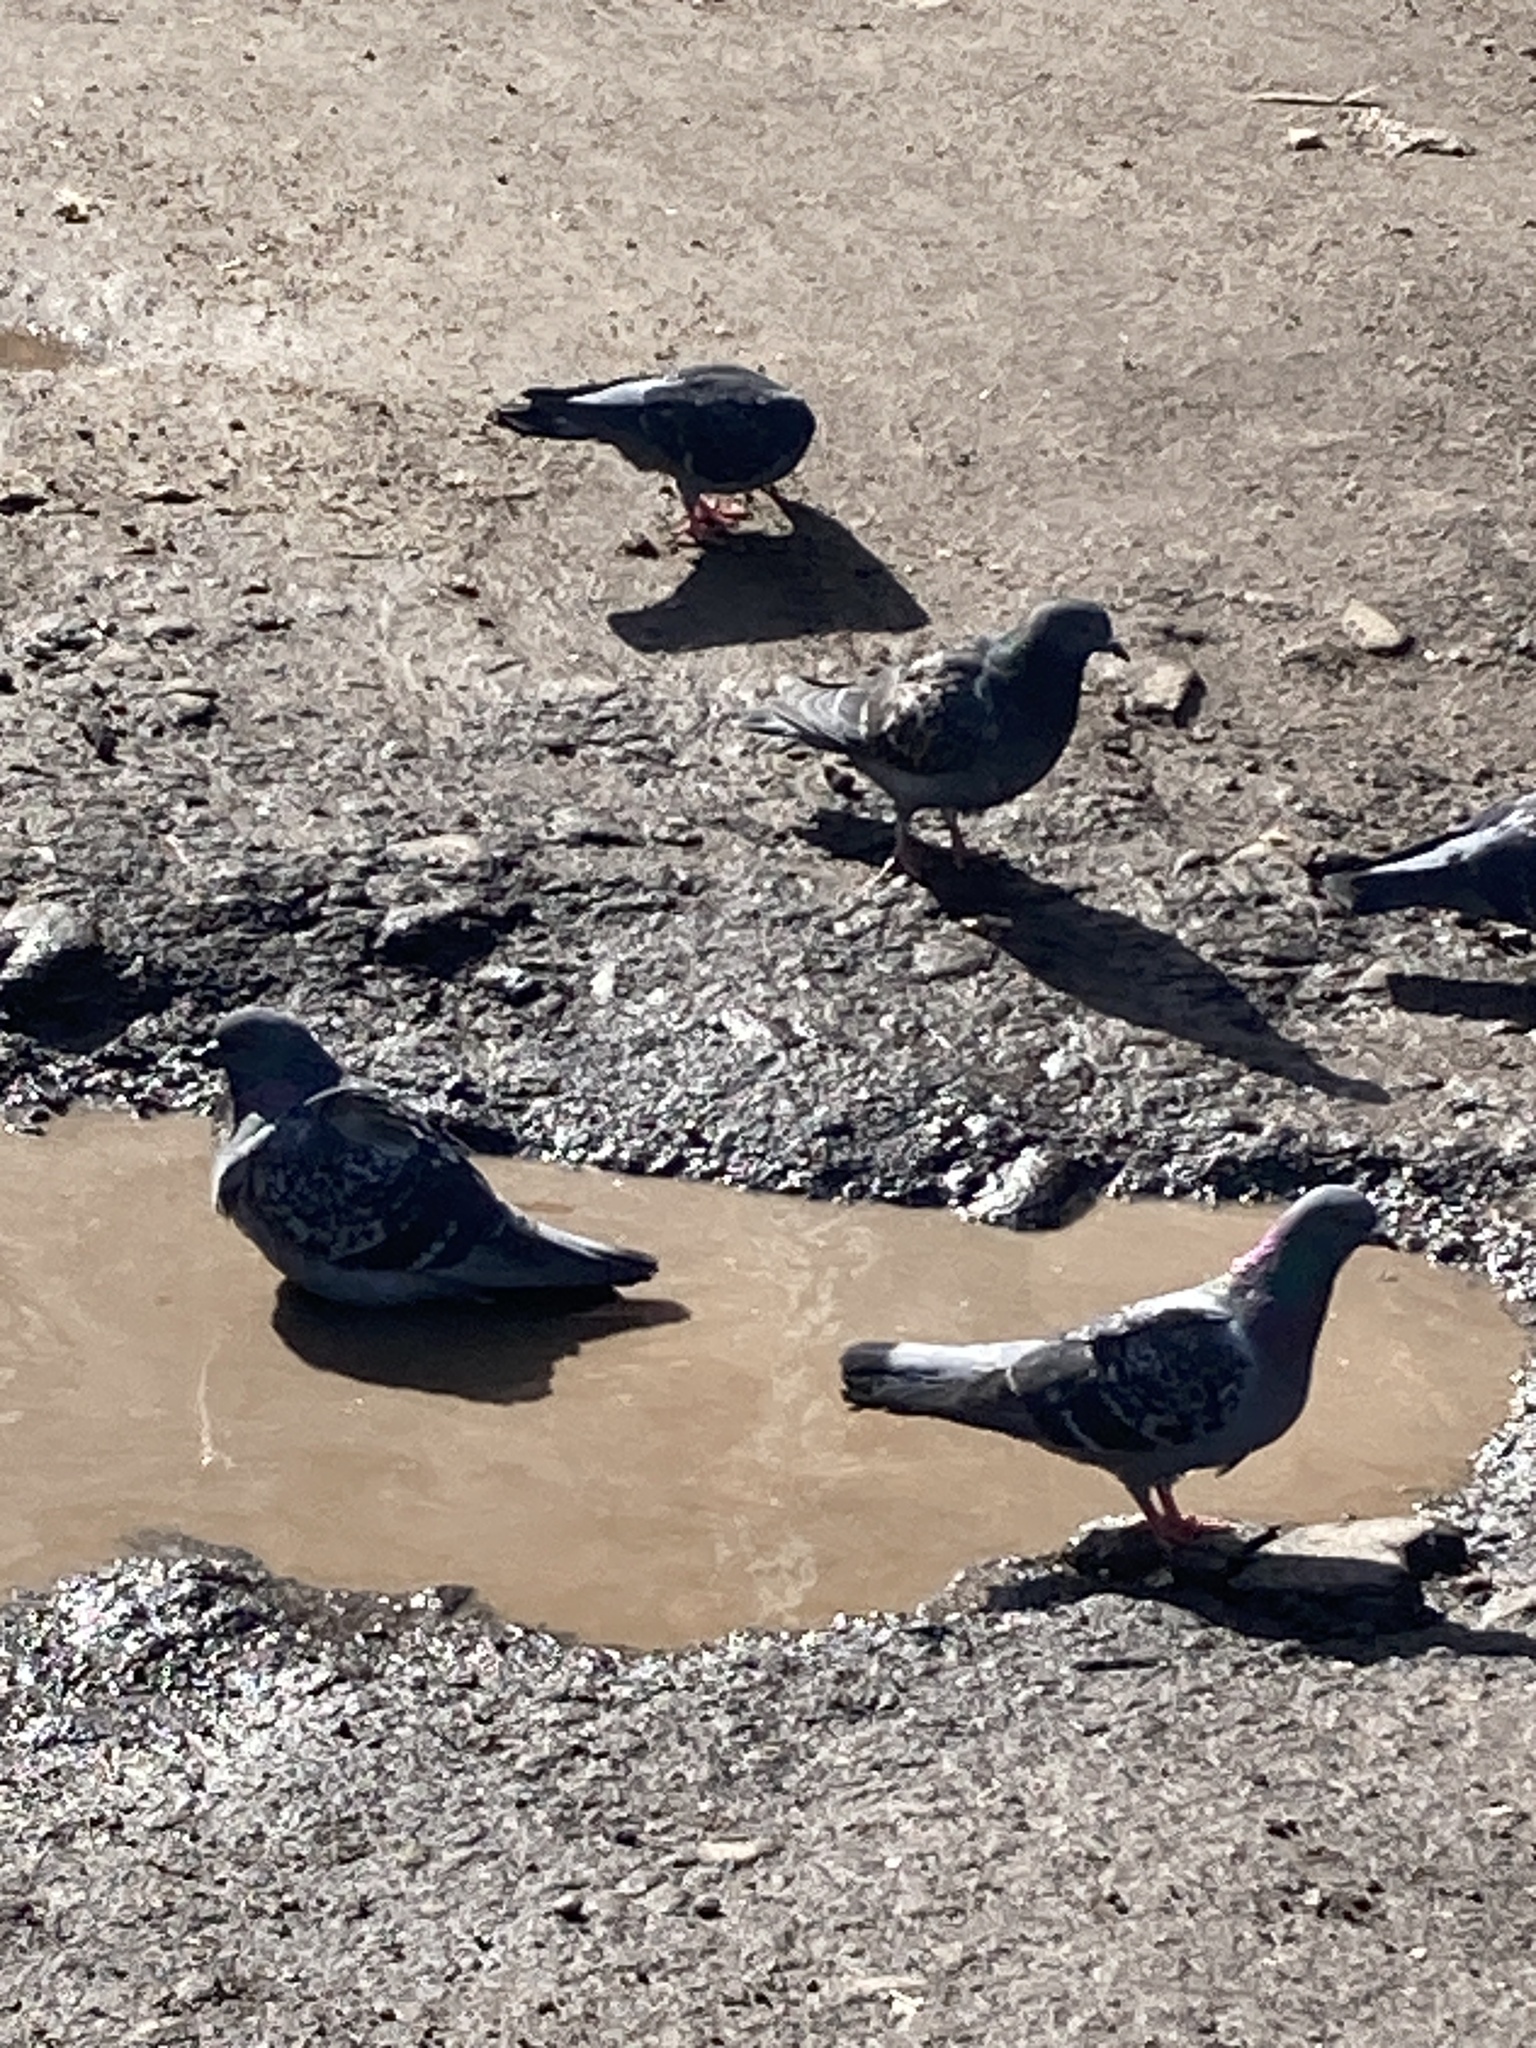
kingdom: Animalia
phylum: Chordata
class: Aves
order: Columbiformes
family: Columbidae
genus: Columba
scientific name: Columba livia
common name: Rock pigeon
